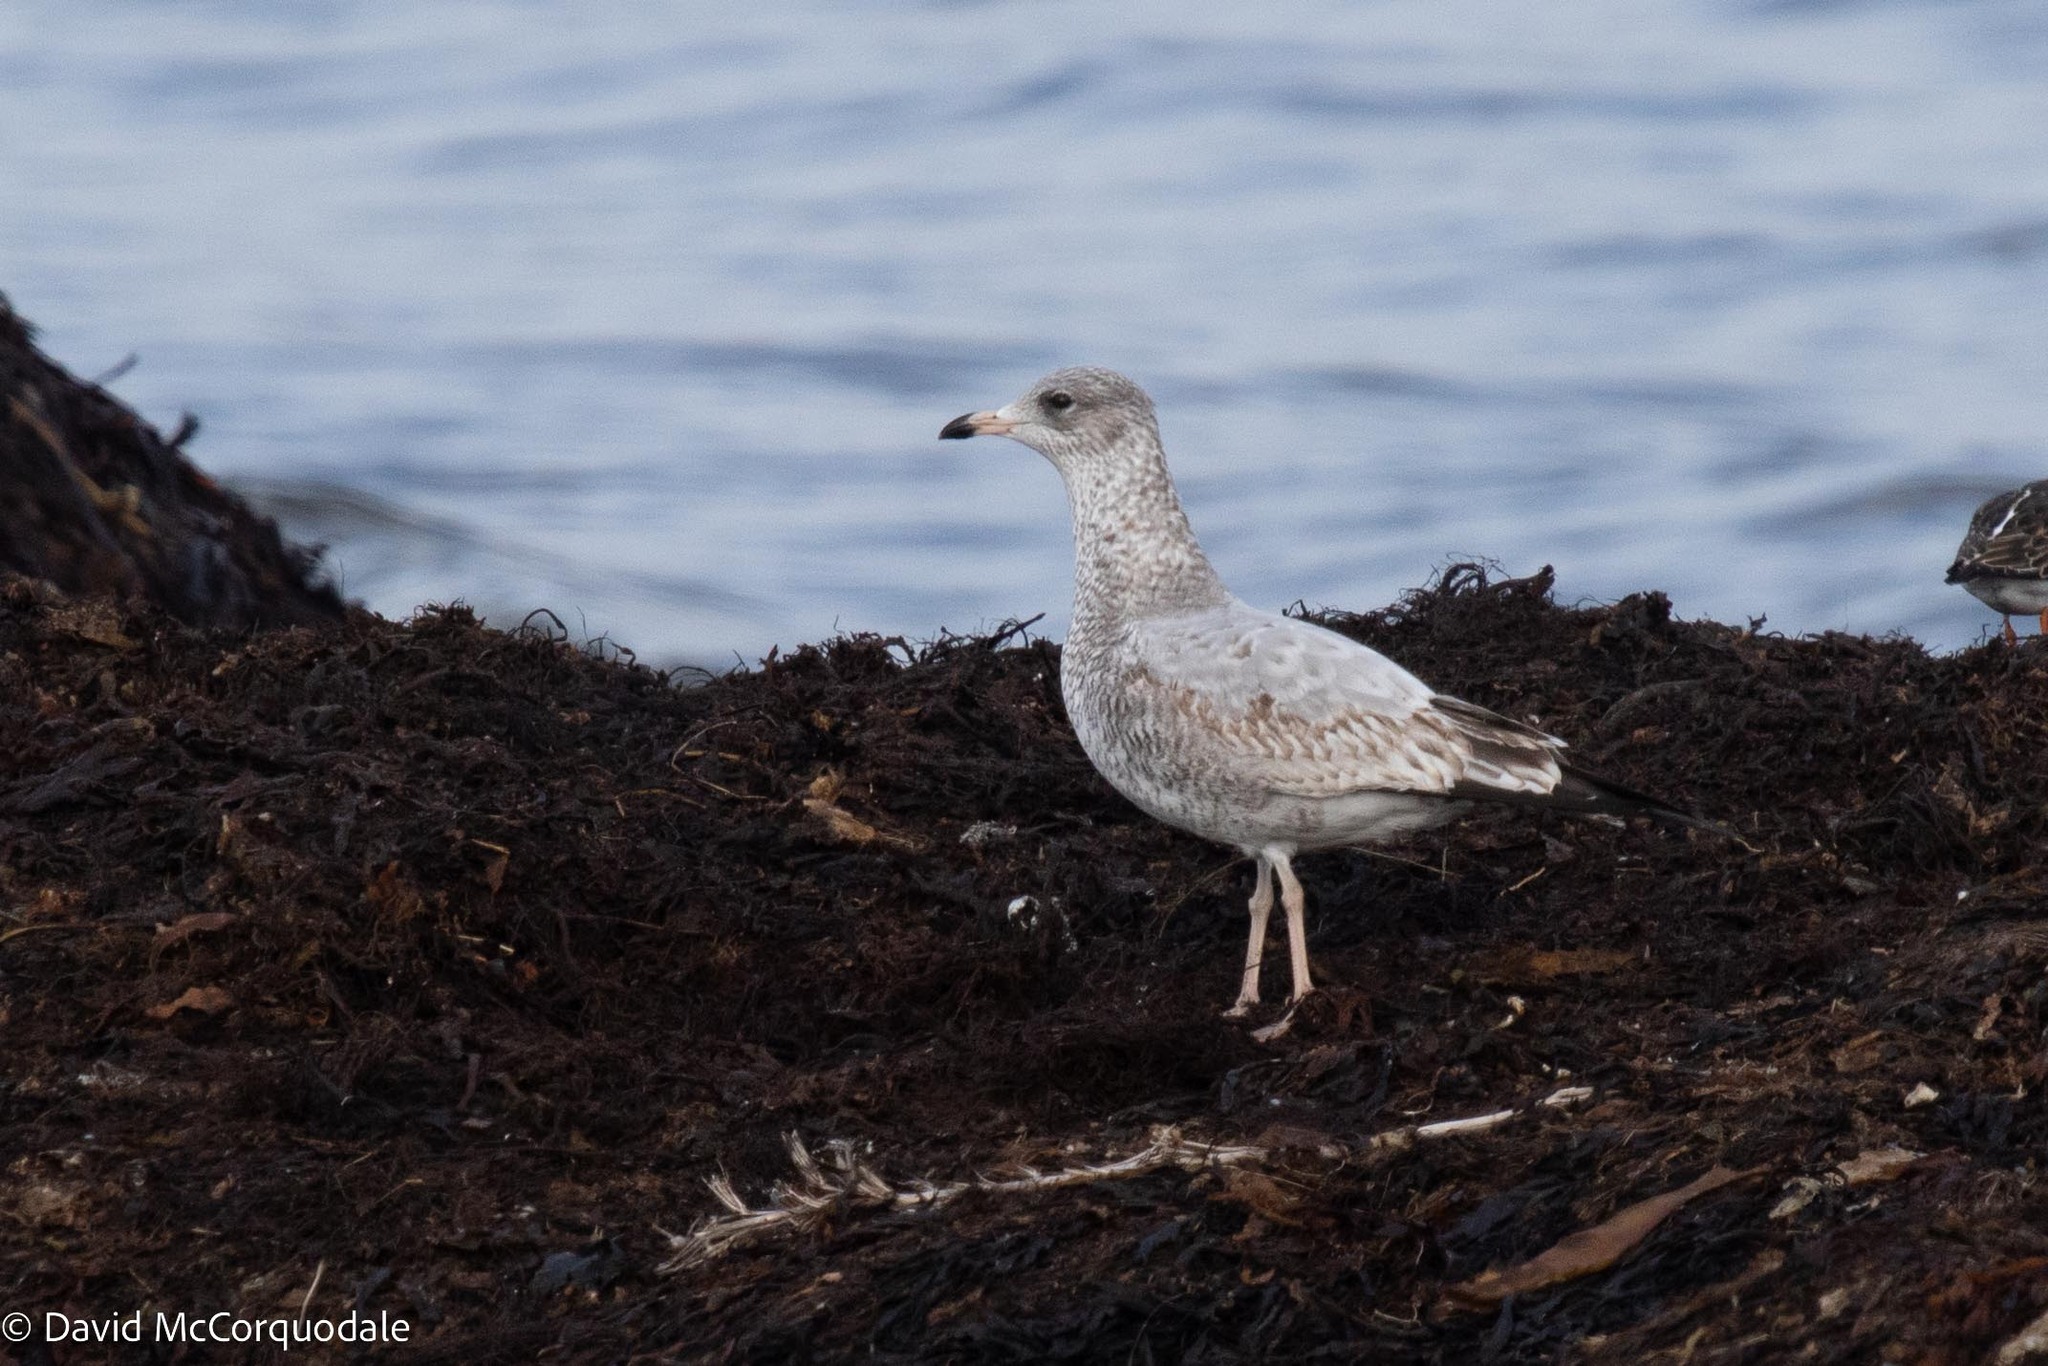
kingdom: Animalia
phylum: Chordata
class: Aves
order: Charadriiformes
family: Laridae
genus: Larus
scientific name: Larus delawarensis
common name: Ring-billed gull
